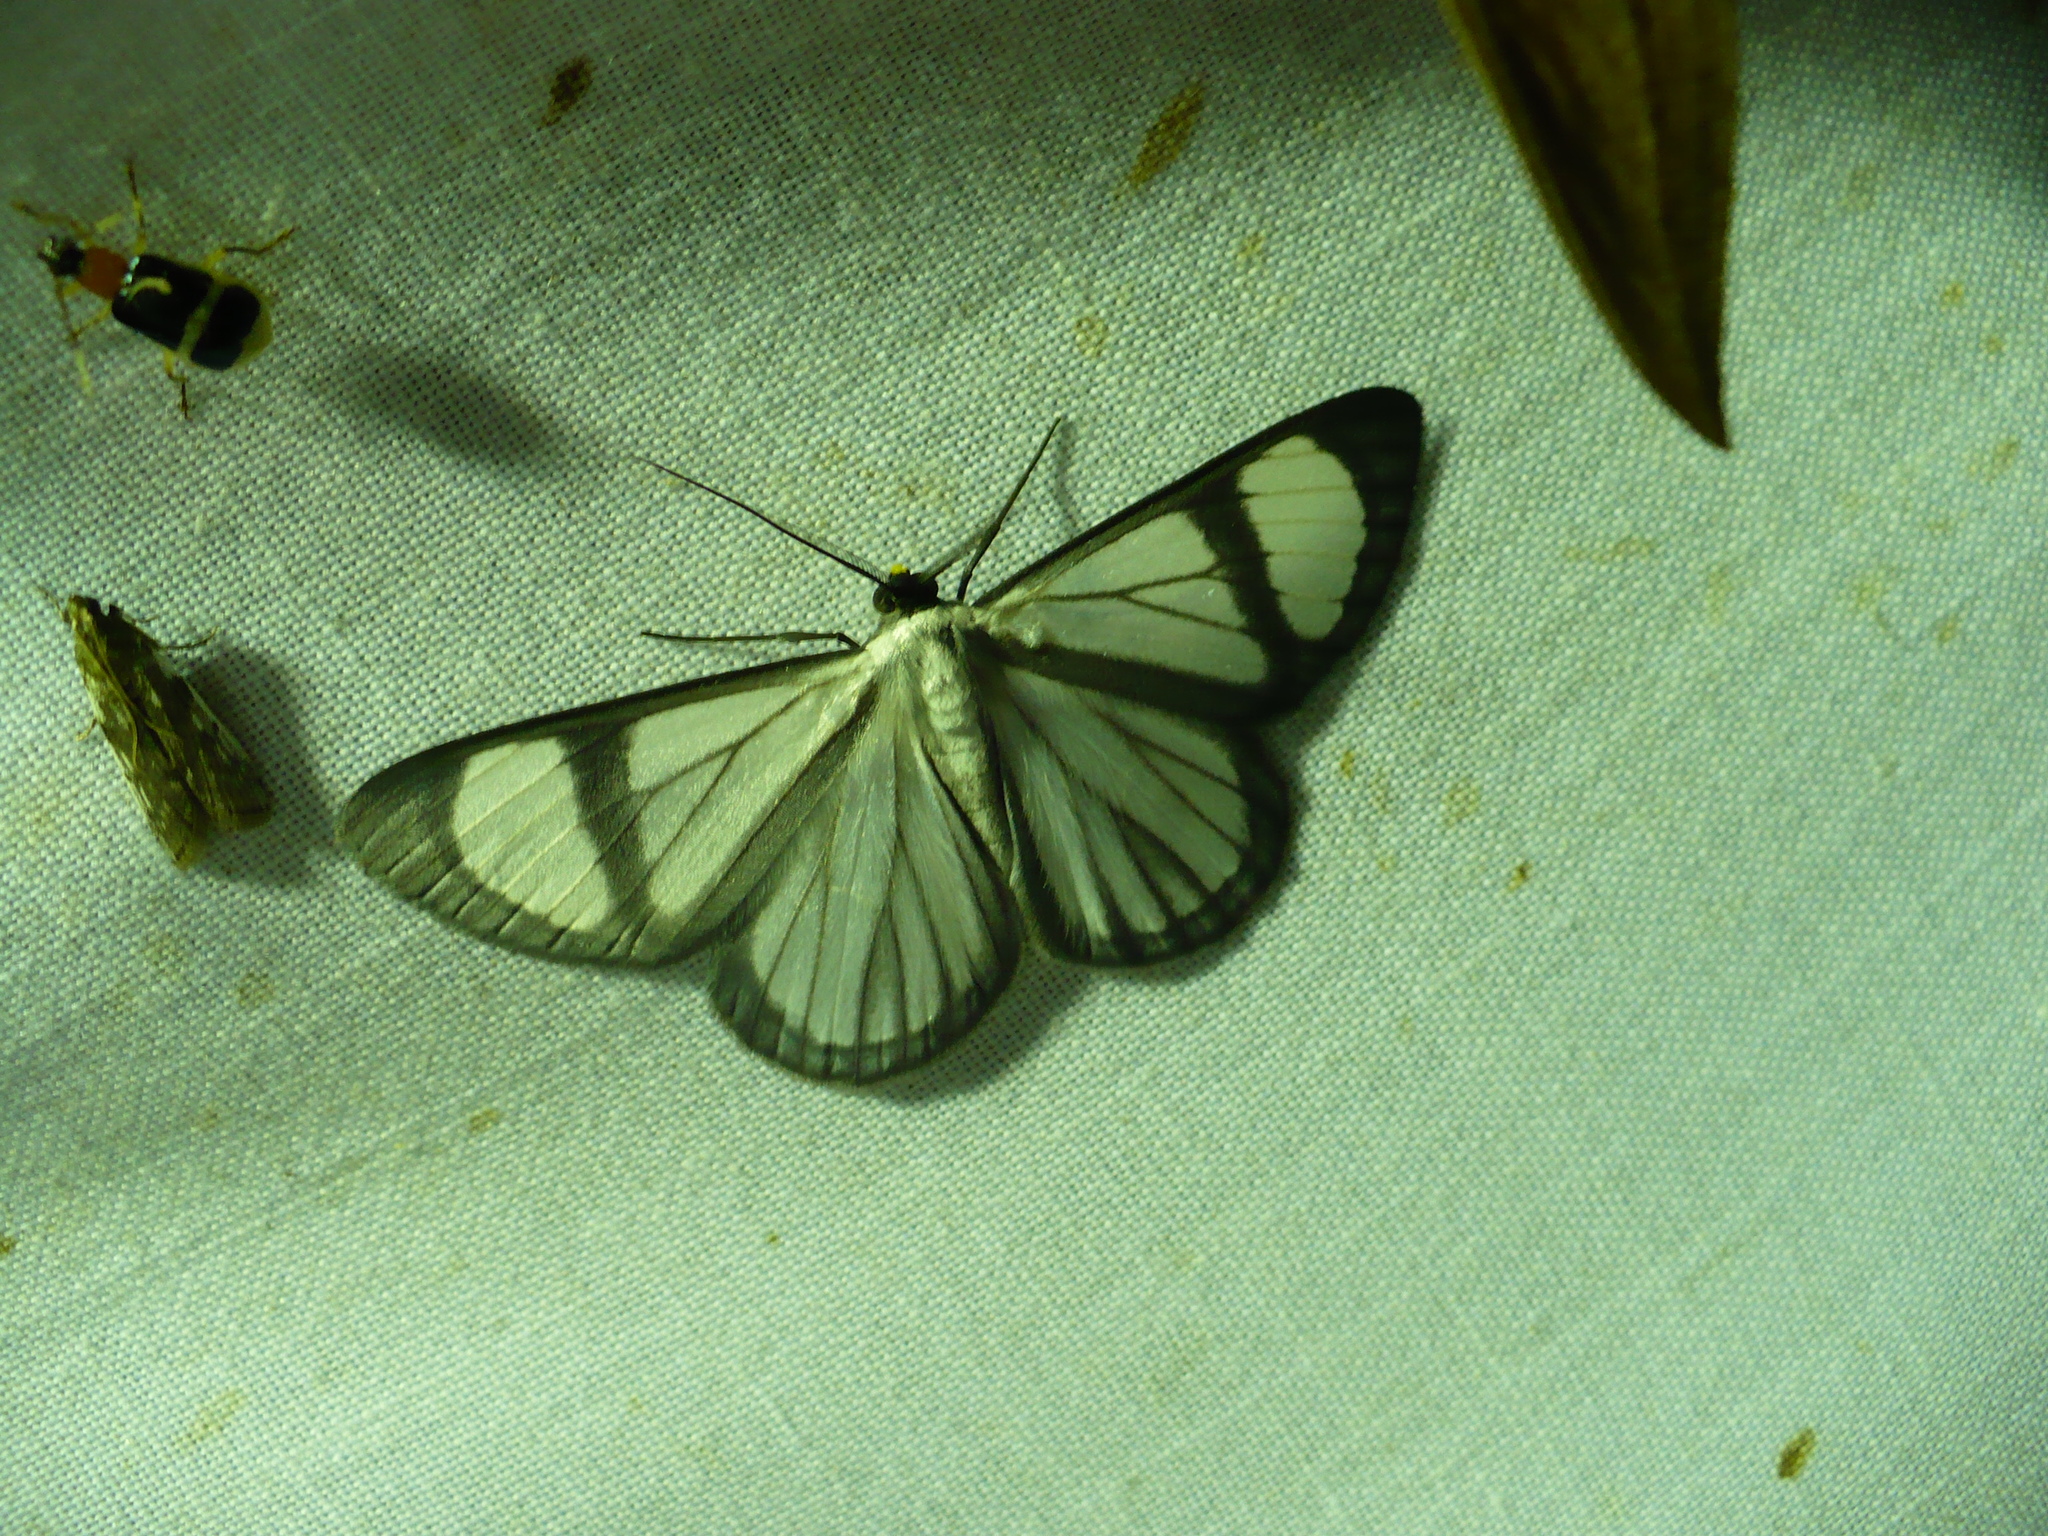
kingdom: Animalia
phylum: Arthropoda
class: Insecta
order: Lepidoptera
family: Geometridae
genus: Perigramma
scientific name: Perigramma vicina
